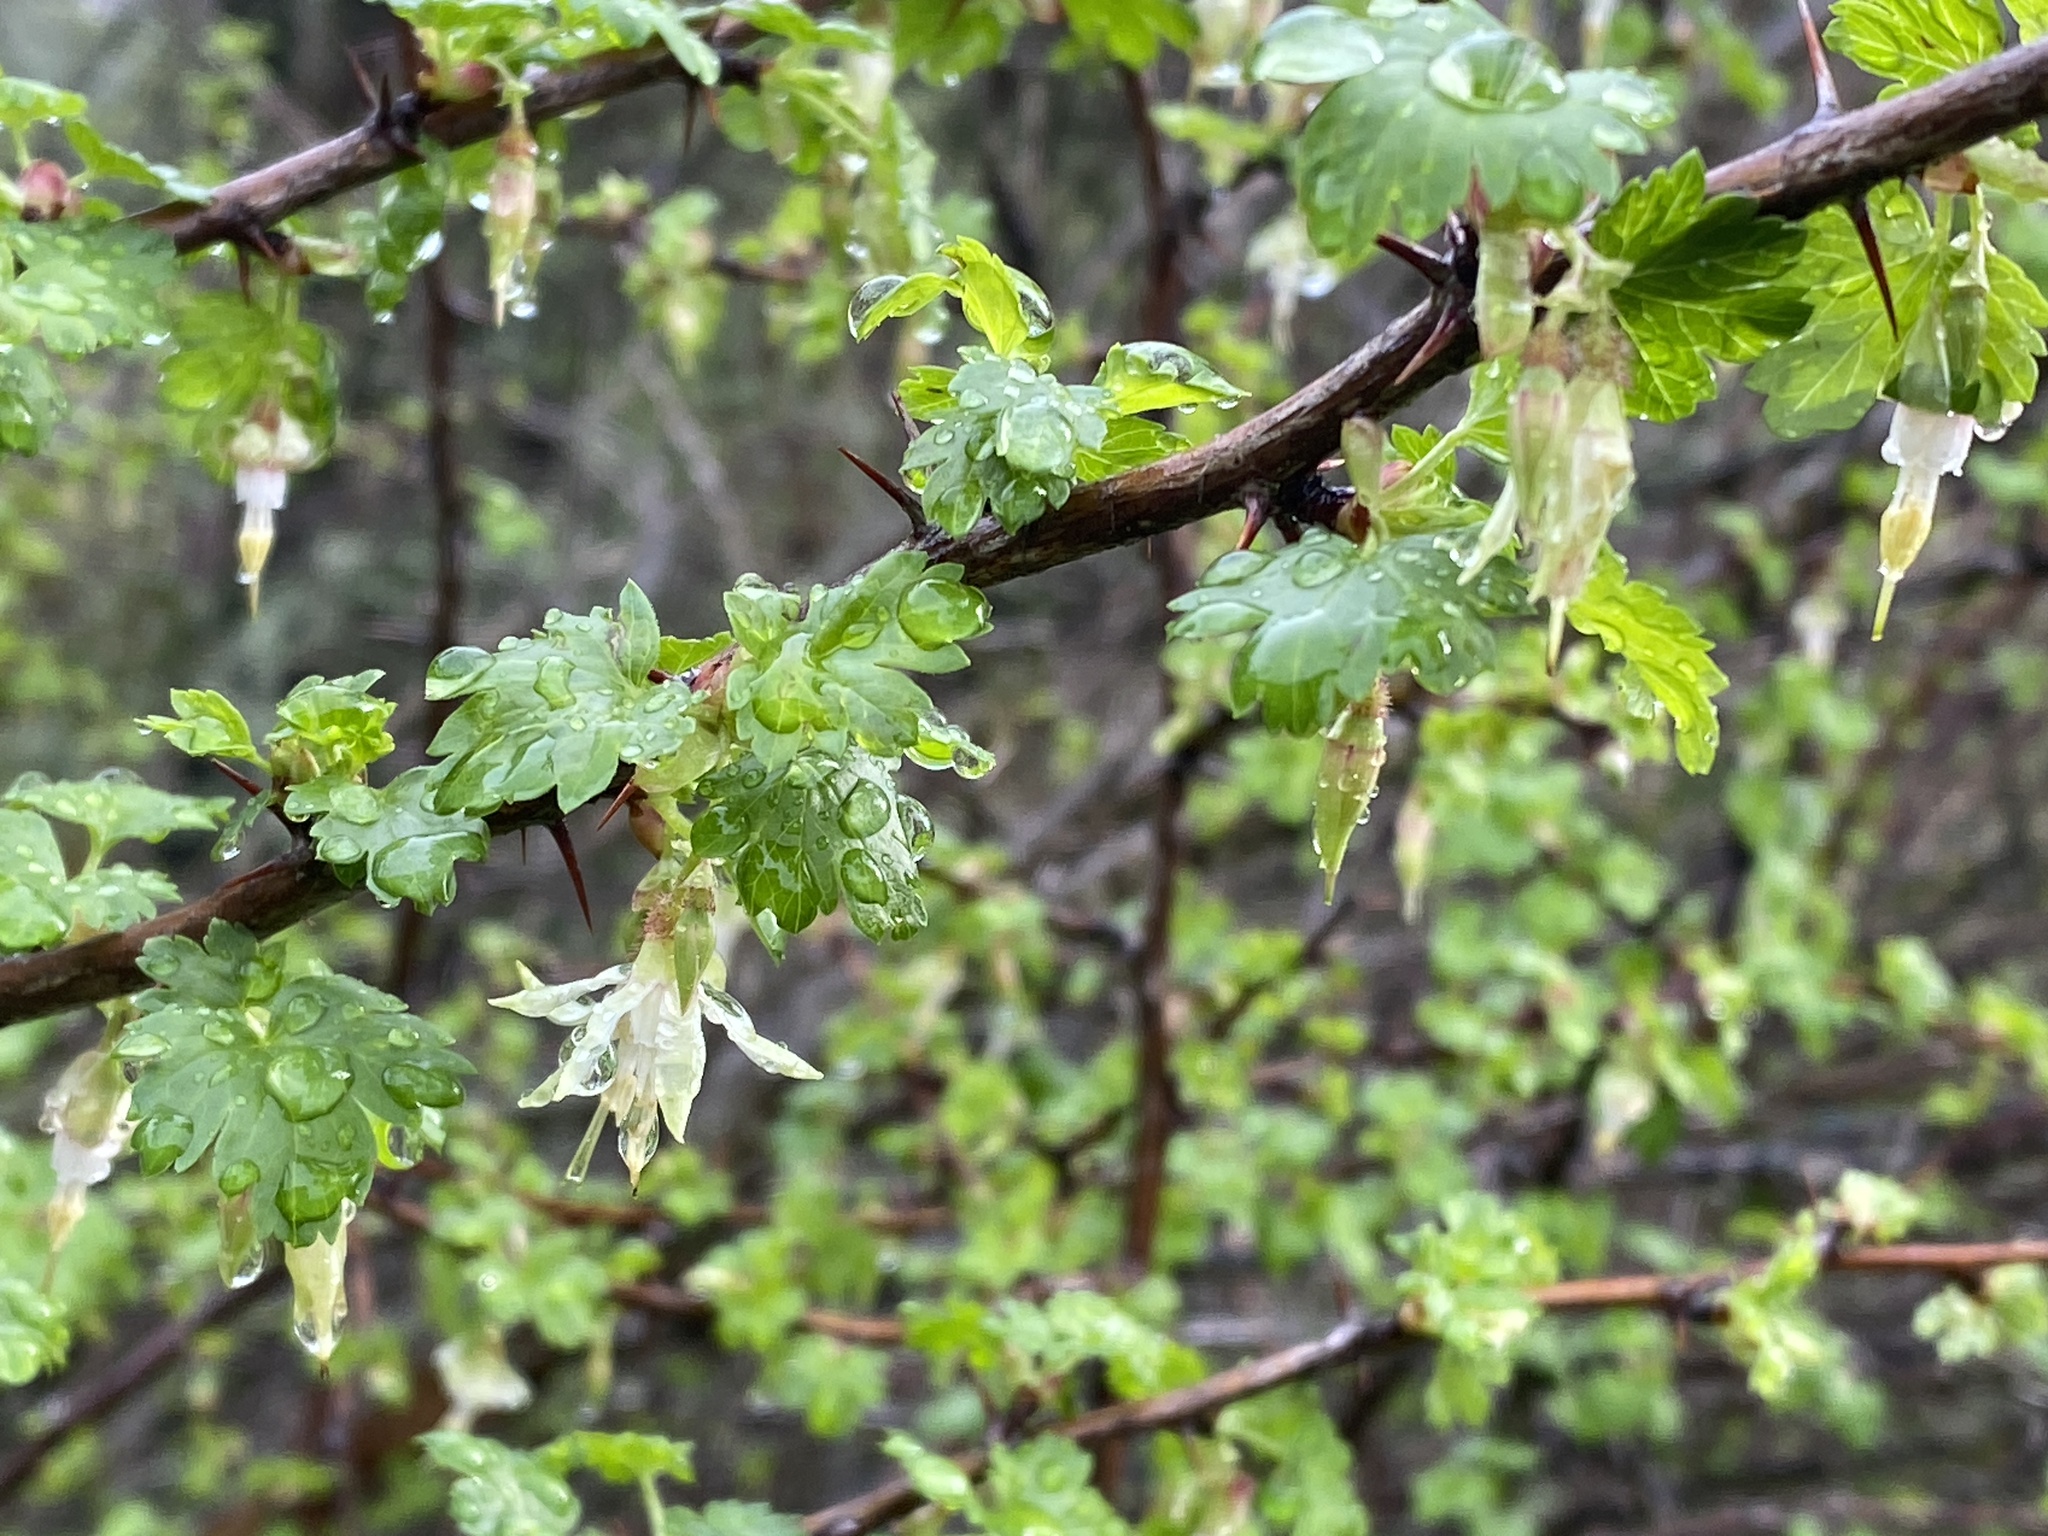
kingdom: Plantae
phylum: Tracheophyta
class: Magnoliopsida
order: Saxifragales
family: Grossulariaceae
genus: Ribes
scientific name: Ribes californicum
